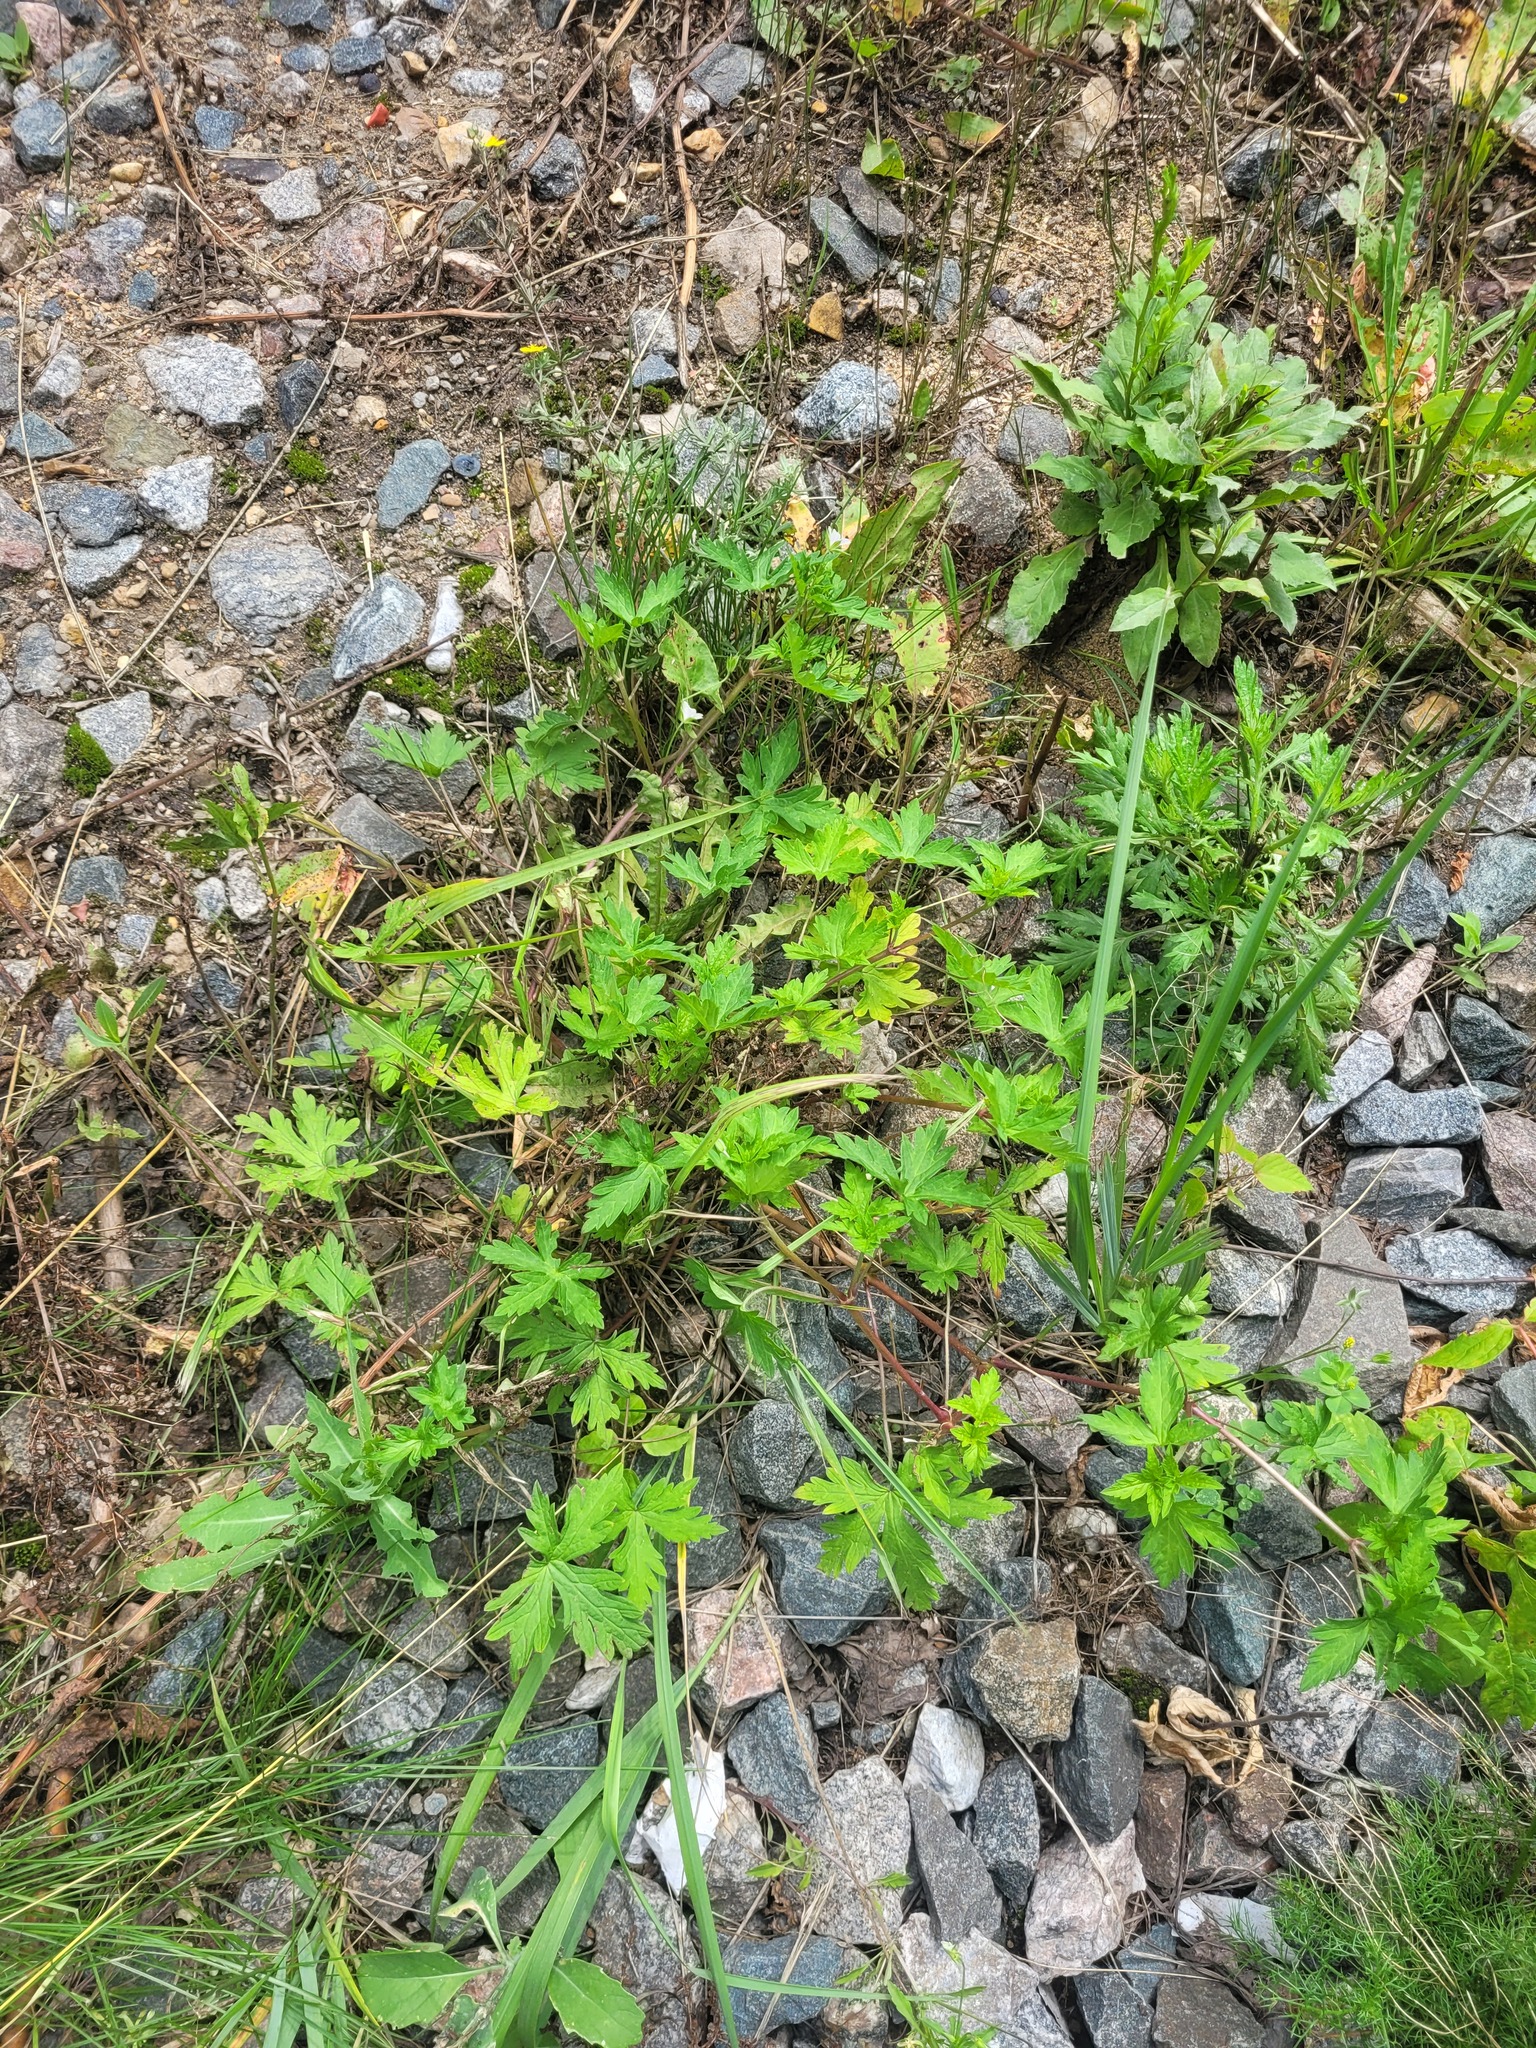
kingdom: Plantae
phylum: Tracheophyta
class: Magnoliopsida
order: Geraniales
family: Geraniaceae
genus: Geranium
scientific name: Geranium sibiricum
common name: Siberian crane's-bill
